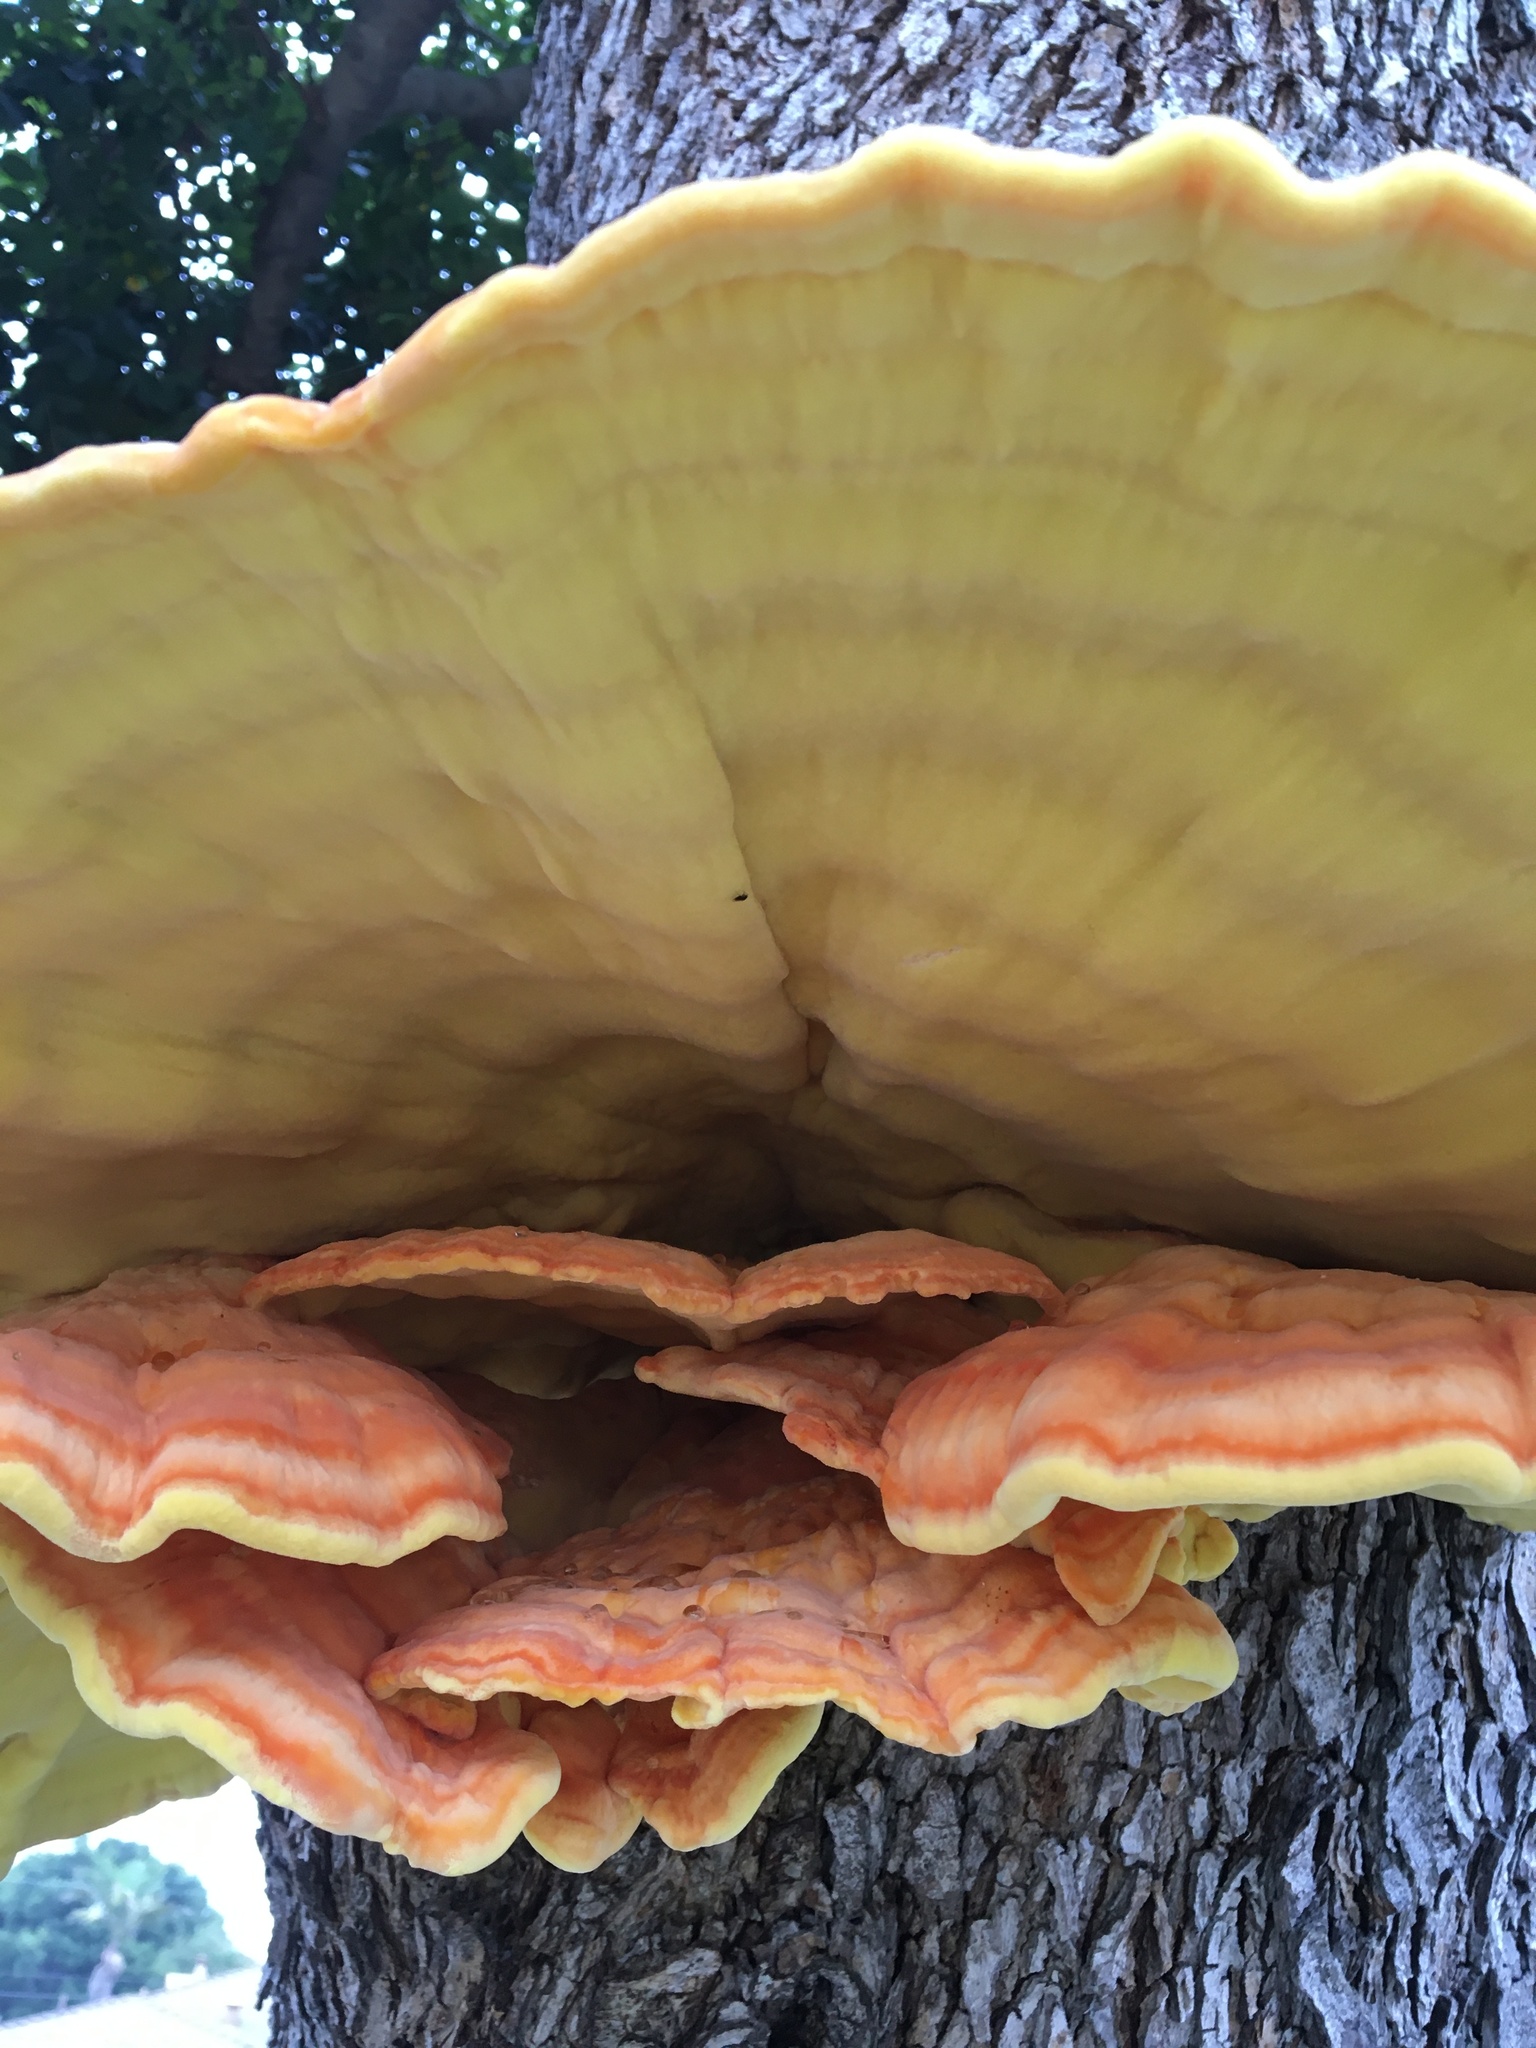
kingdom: Fungi
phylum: Basidiomycota
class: Agaricomycetes
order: Polyporales
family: Laetiporaceae
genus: Laetiporus
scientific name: Laetiporus gilbertsonii
